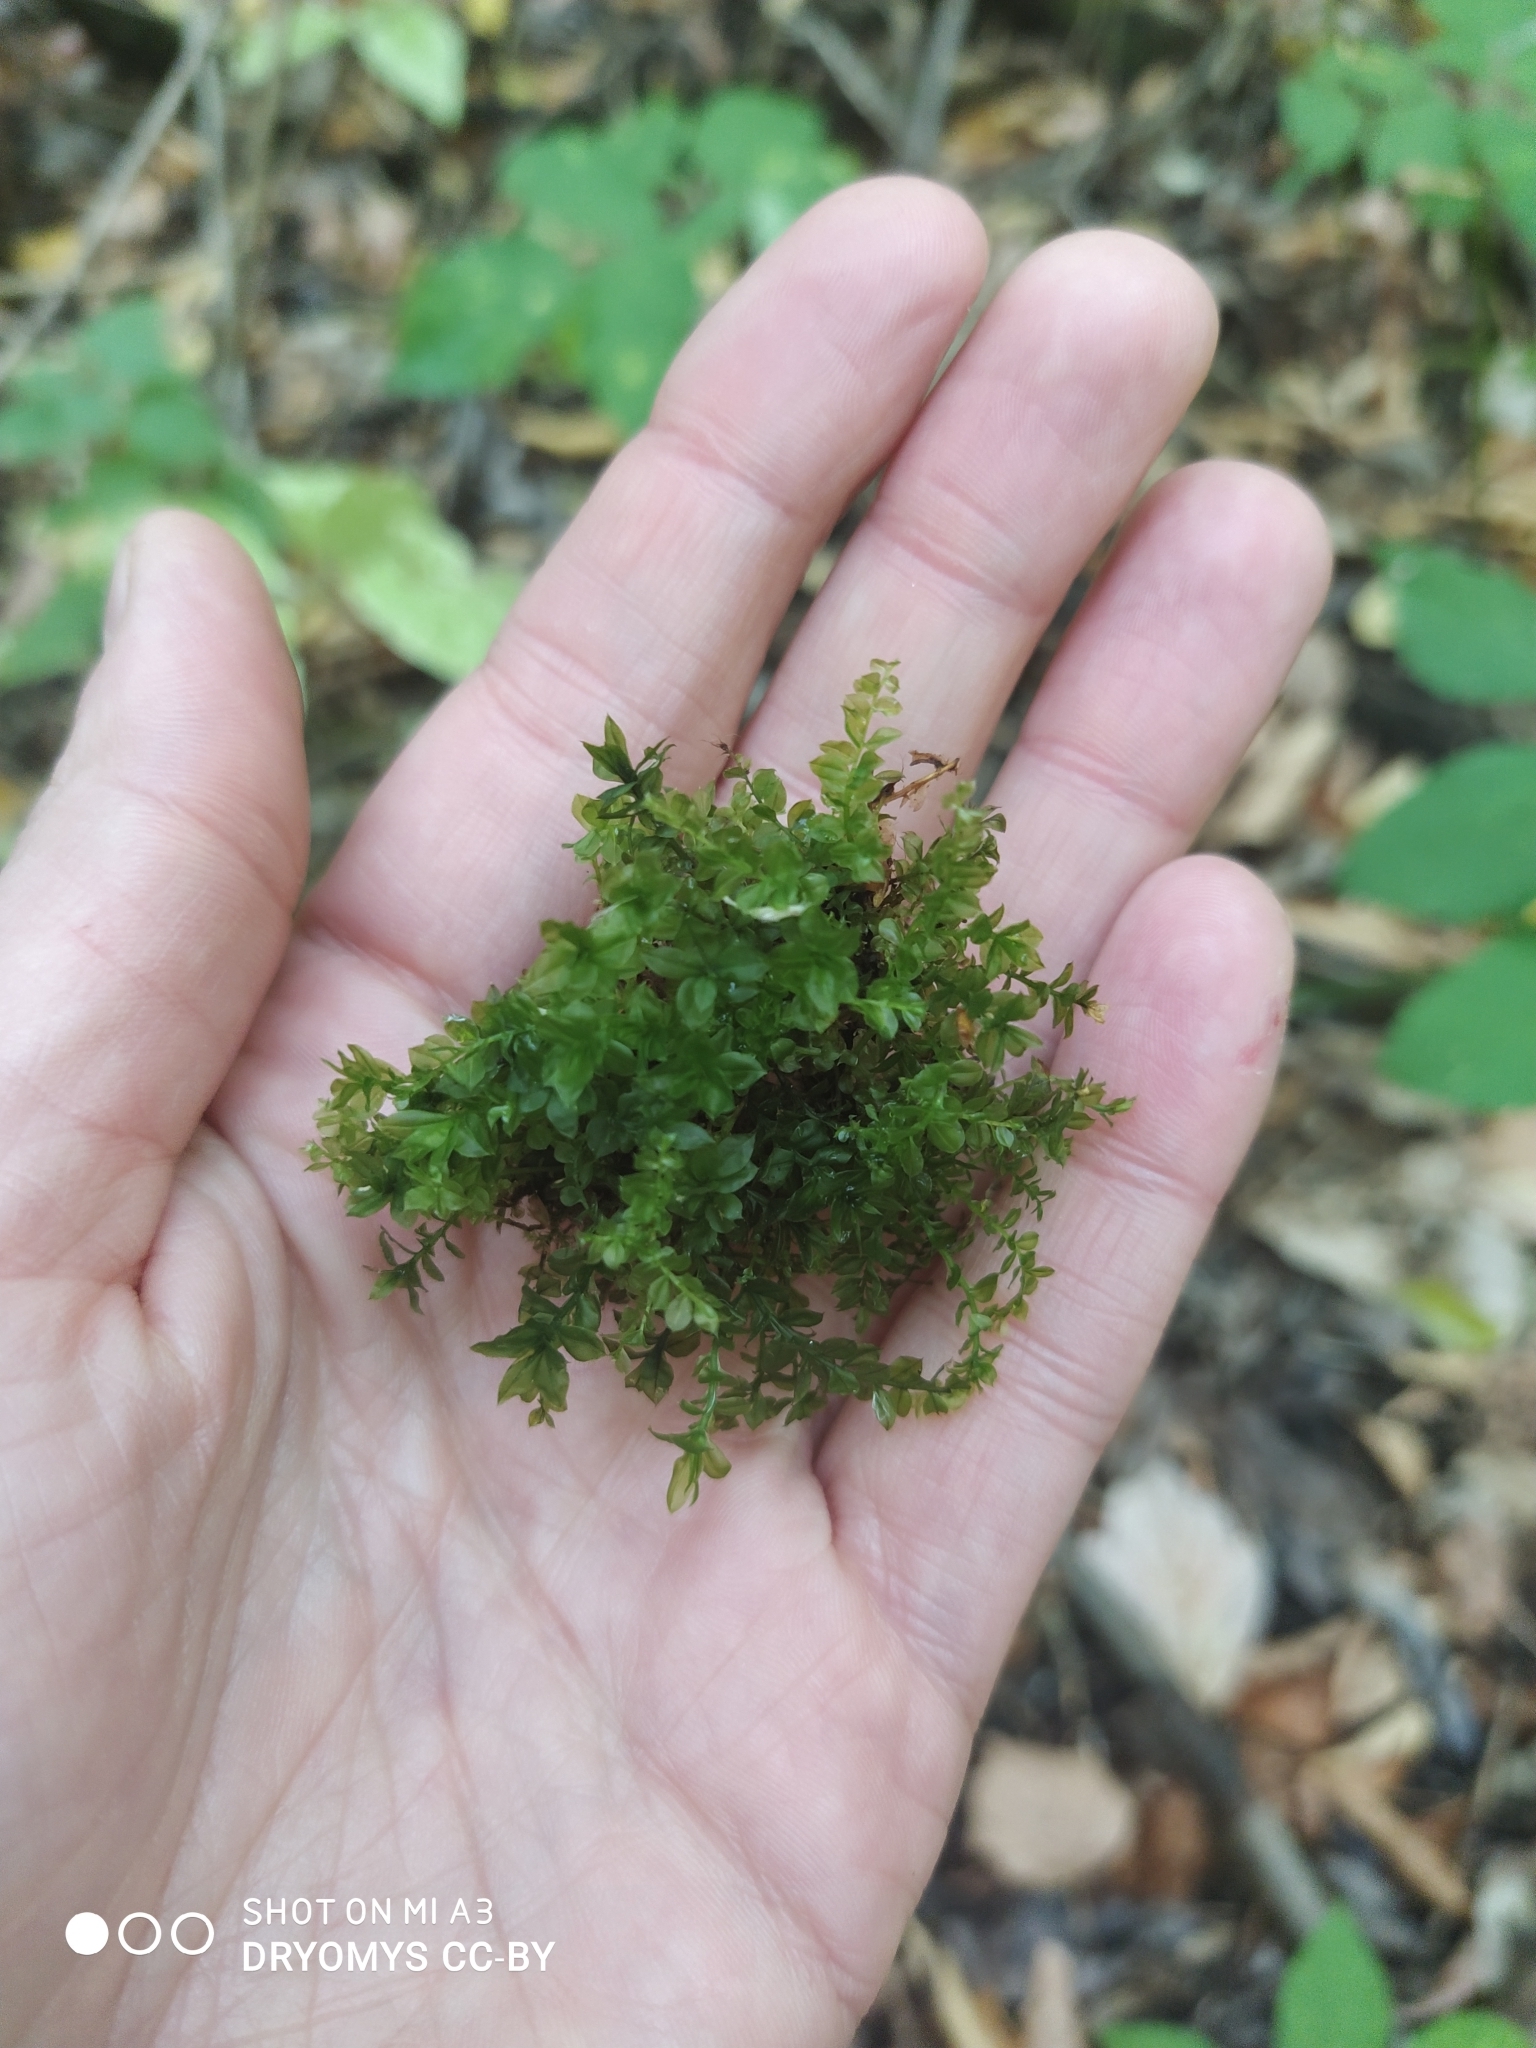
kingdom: Plantae
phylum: Bryophyta
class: Bryopsida
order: Bryales
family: Mniaceae
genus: Plagiomnium
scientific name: Plagiomnium cuspidatum
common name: Woodsy leafy moss
